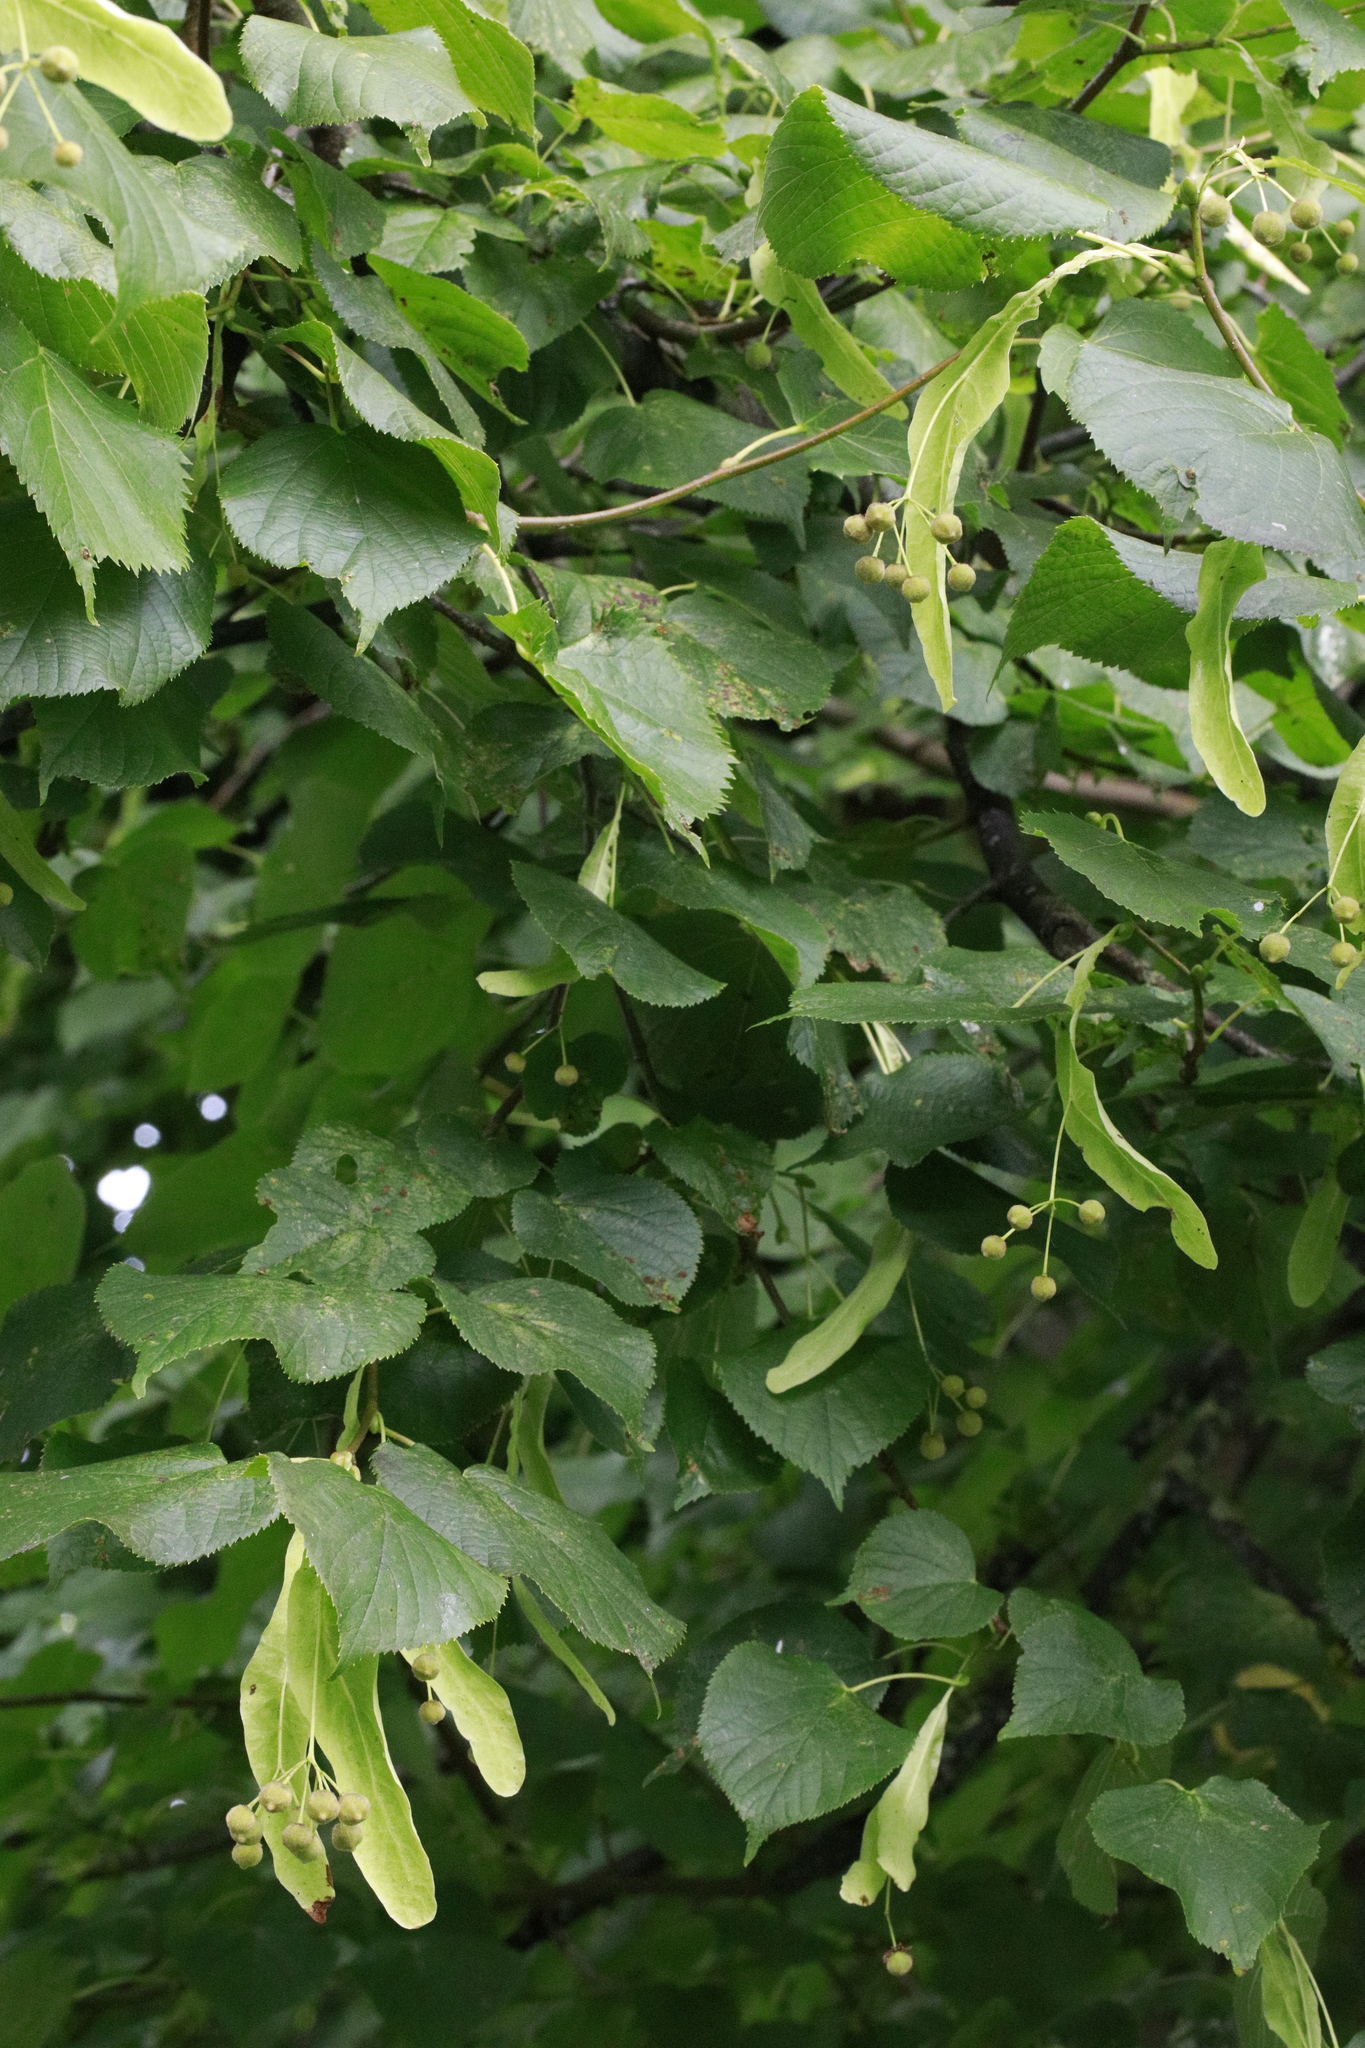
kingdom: Plantae
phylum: Tracheophyta
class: Magnoliopsida
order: Malvales
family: Malvaceae
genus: Tilia
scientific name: Tilia europaea
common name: European linden
